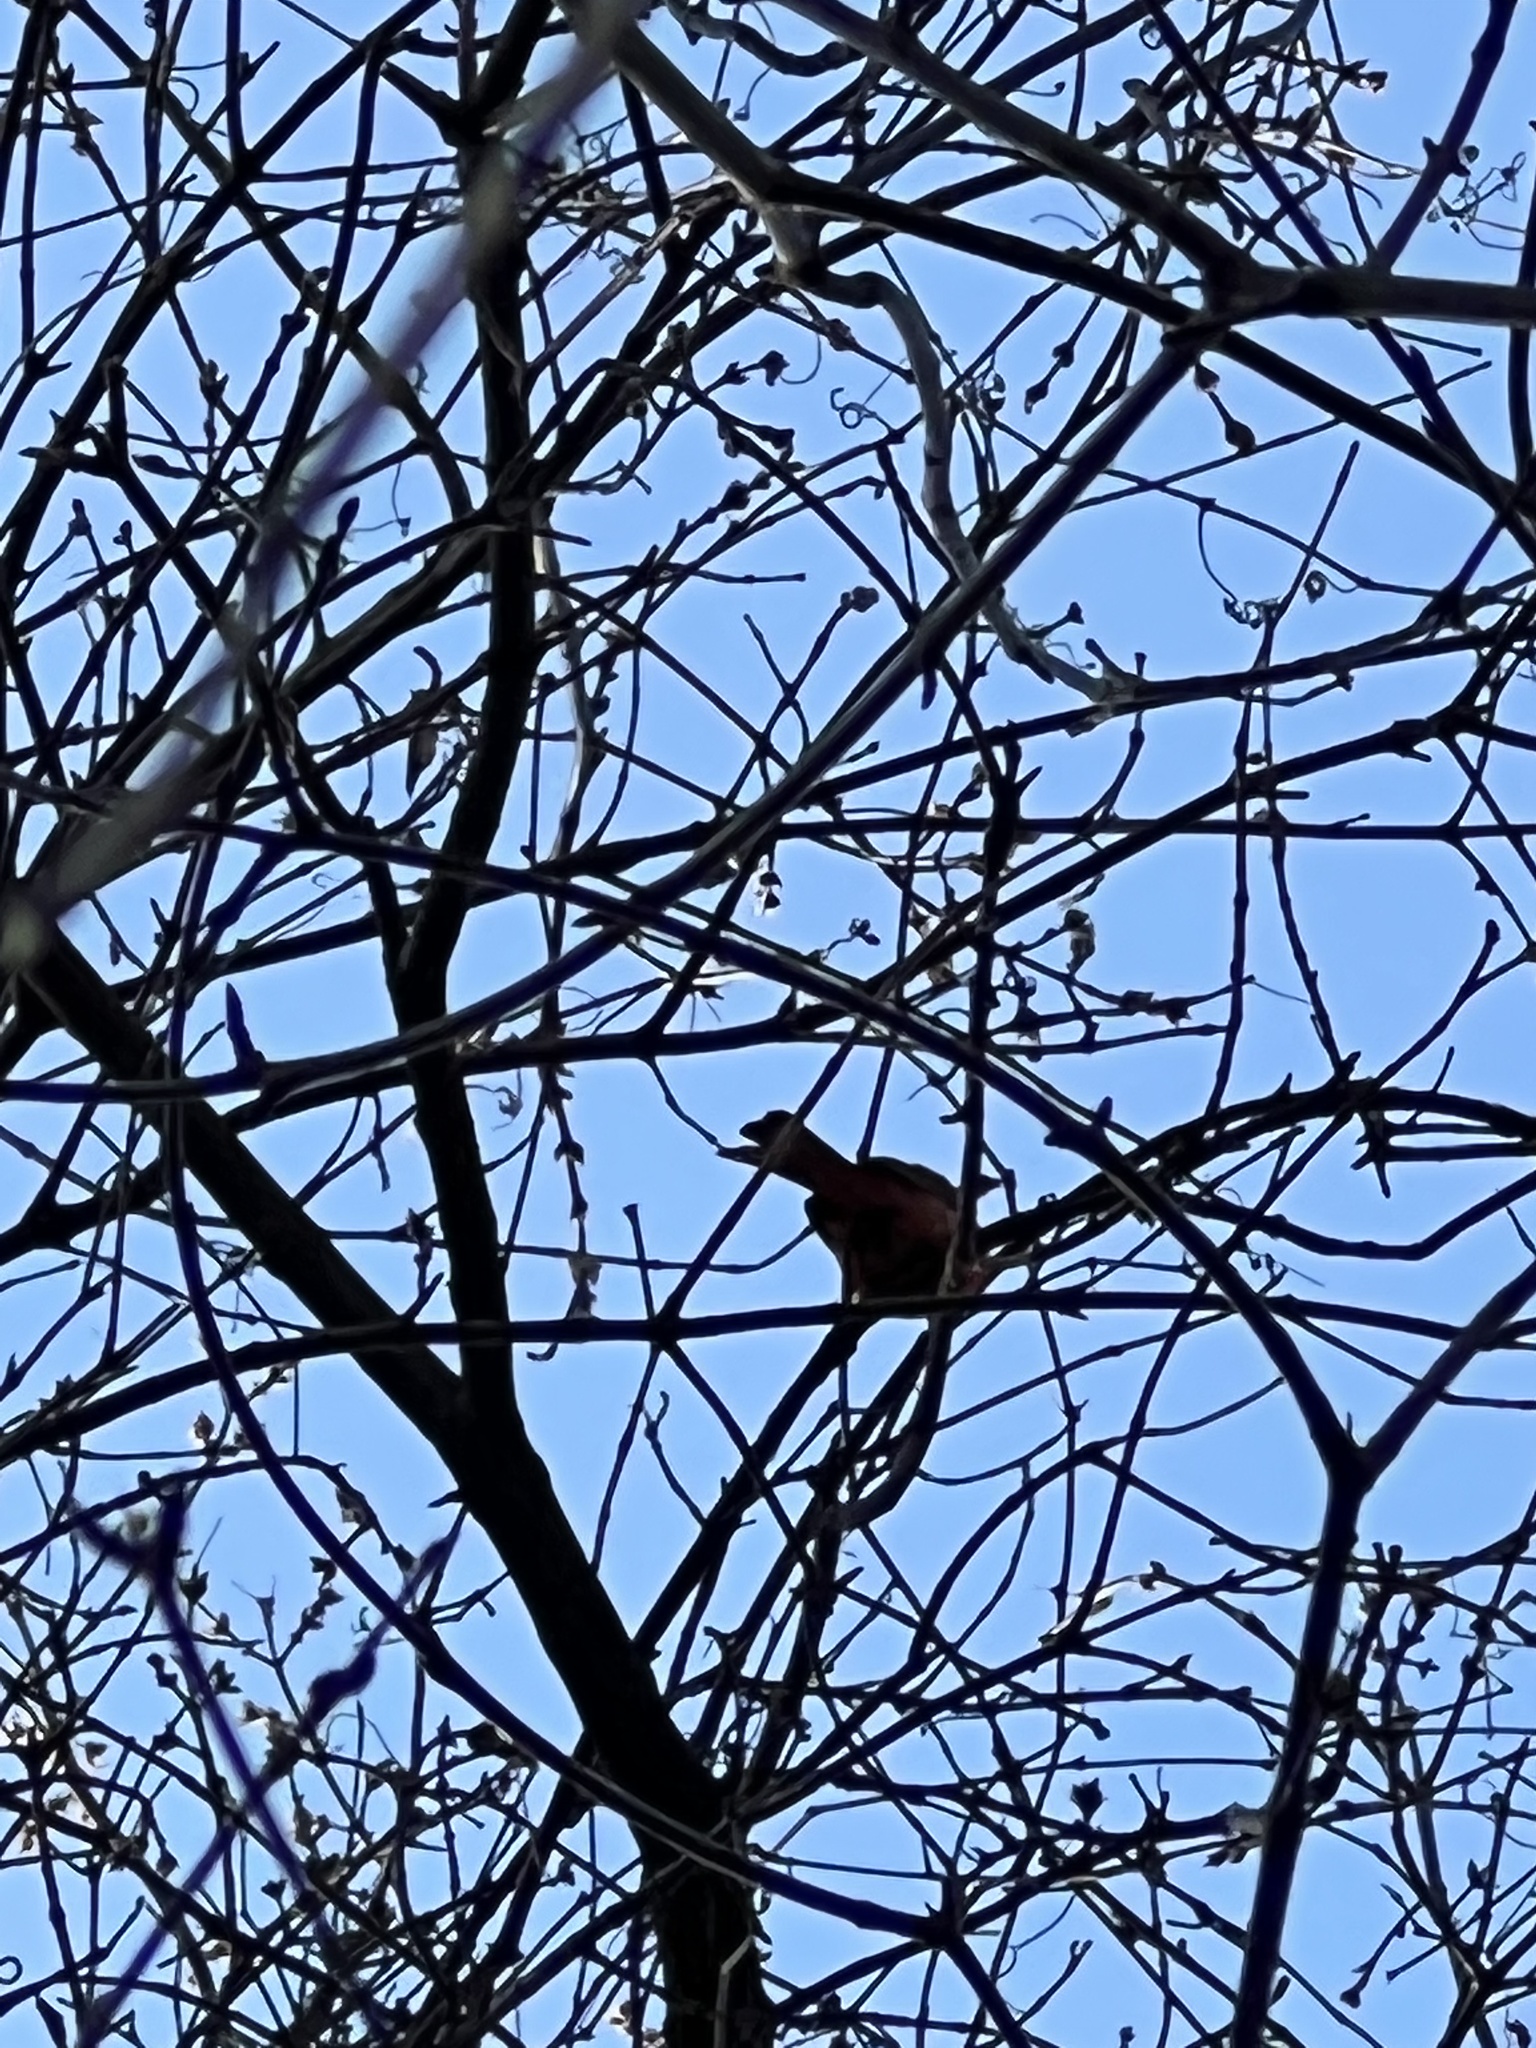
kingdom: Animalia
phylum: Chordata
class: Aves
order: Passeriformes
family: Cardinalidae
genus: Cardinalis
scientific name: Cardinalis cardinalis
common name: Northern cardinal
